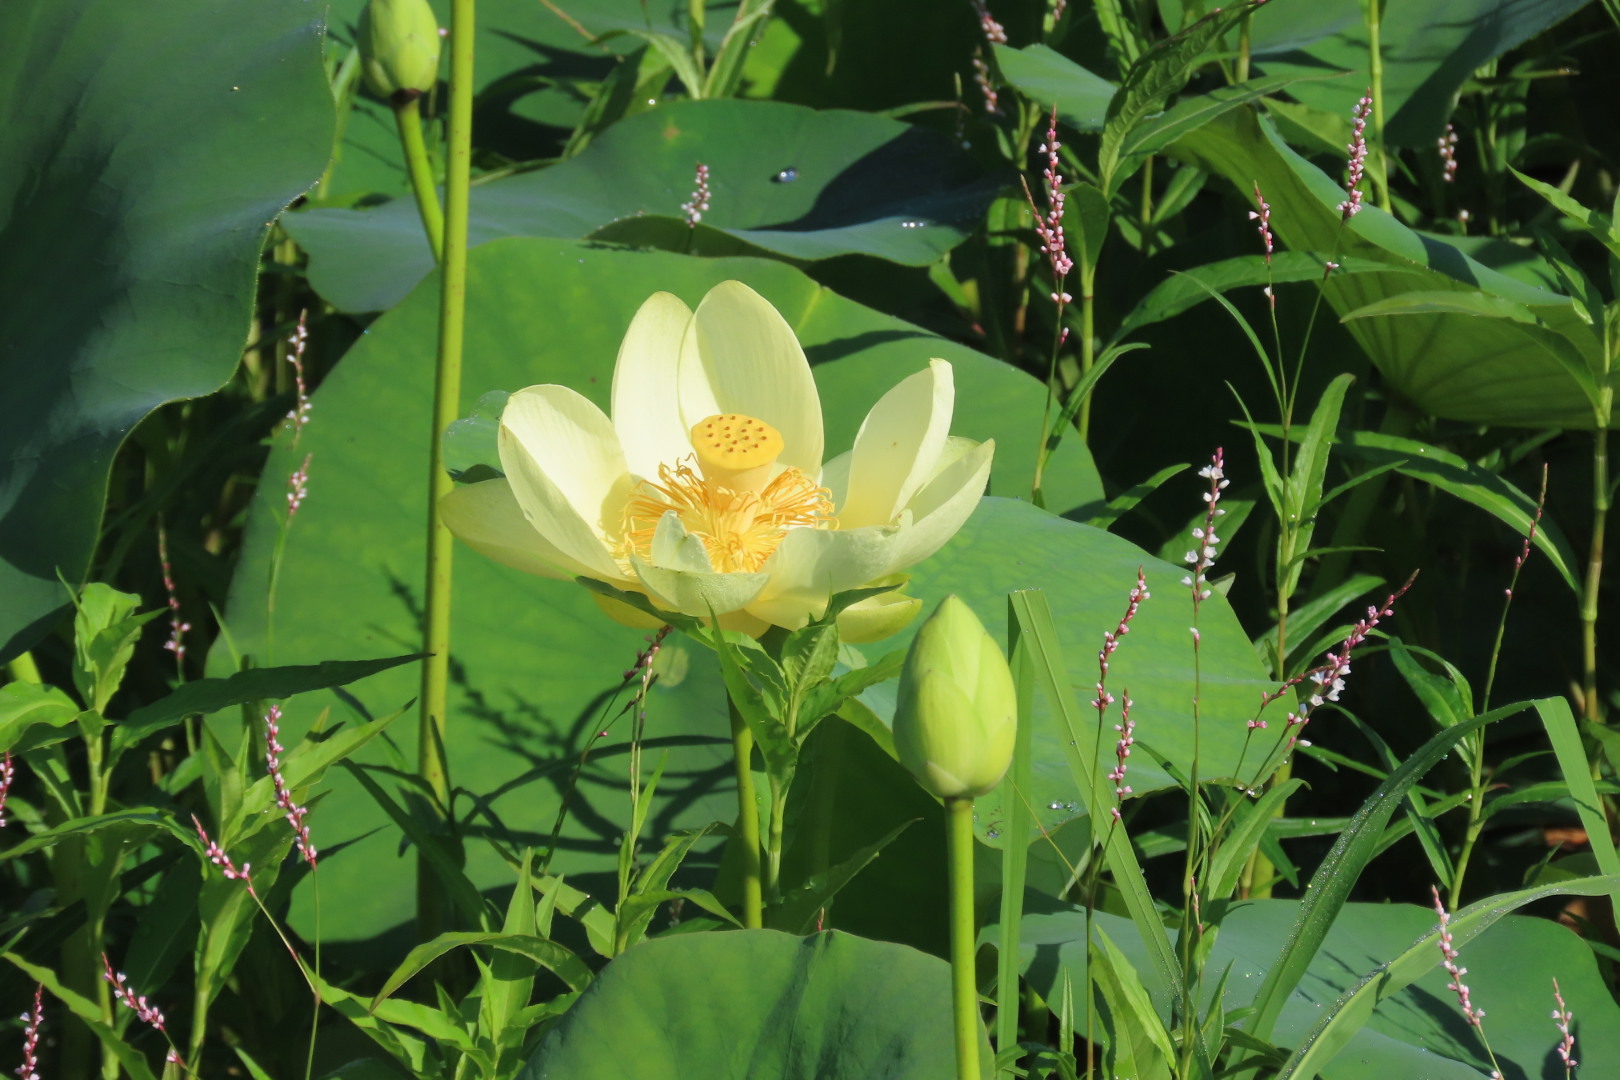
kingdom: Plantae
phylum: Tracheophyta
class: Magnoliopsida
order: Proteales
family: Nelumbonaceae
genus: Nelumbo
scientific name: Nelumbo lutea
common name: American lotus
